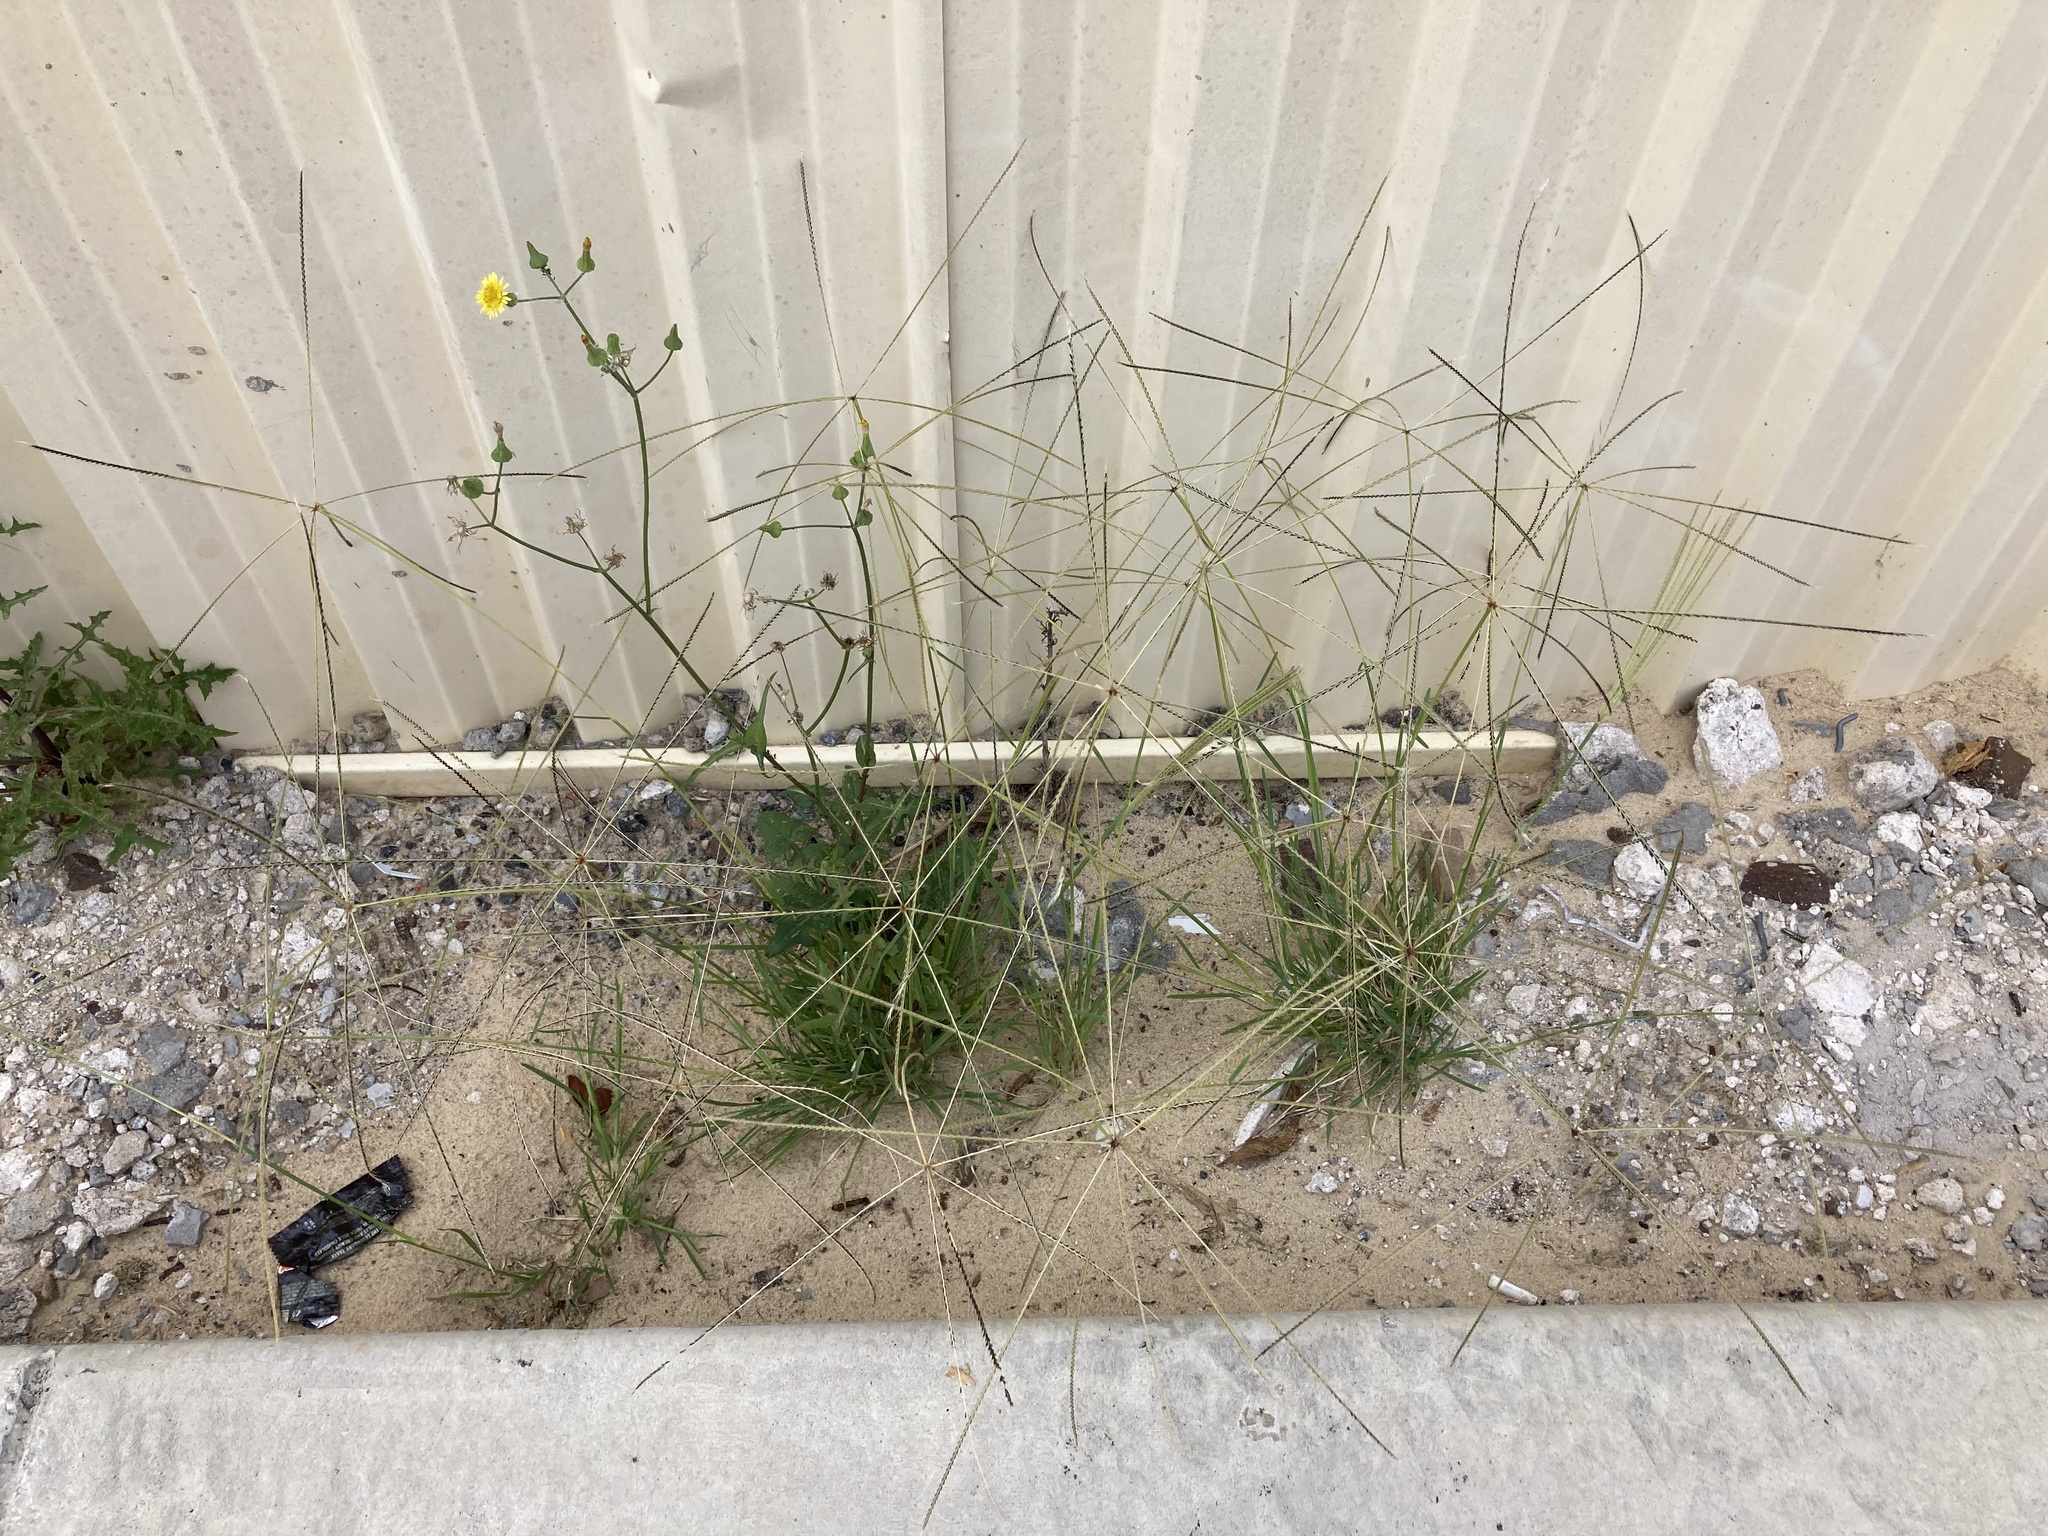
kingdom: Plantae
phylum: Tracheophyta
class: Liliopsida
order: Poales
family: Poaceae
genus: Chloris
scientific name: Chloris truncata
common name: Windmill-grass
